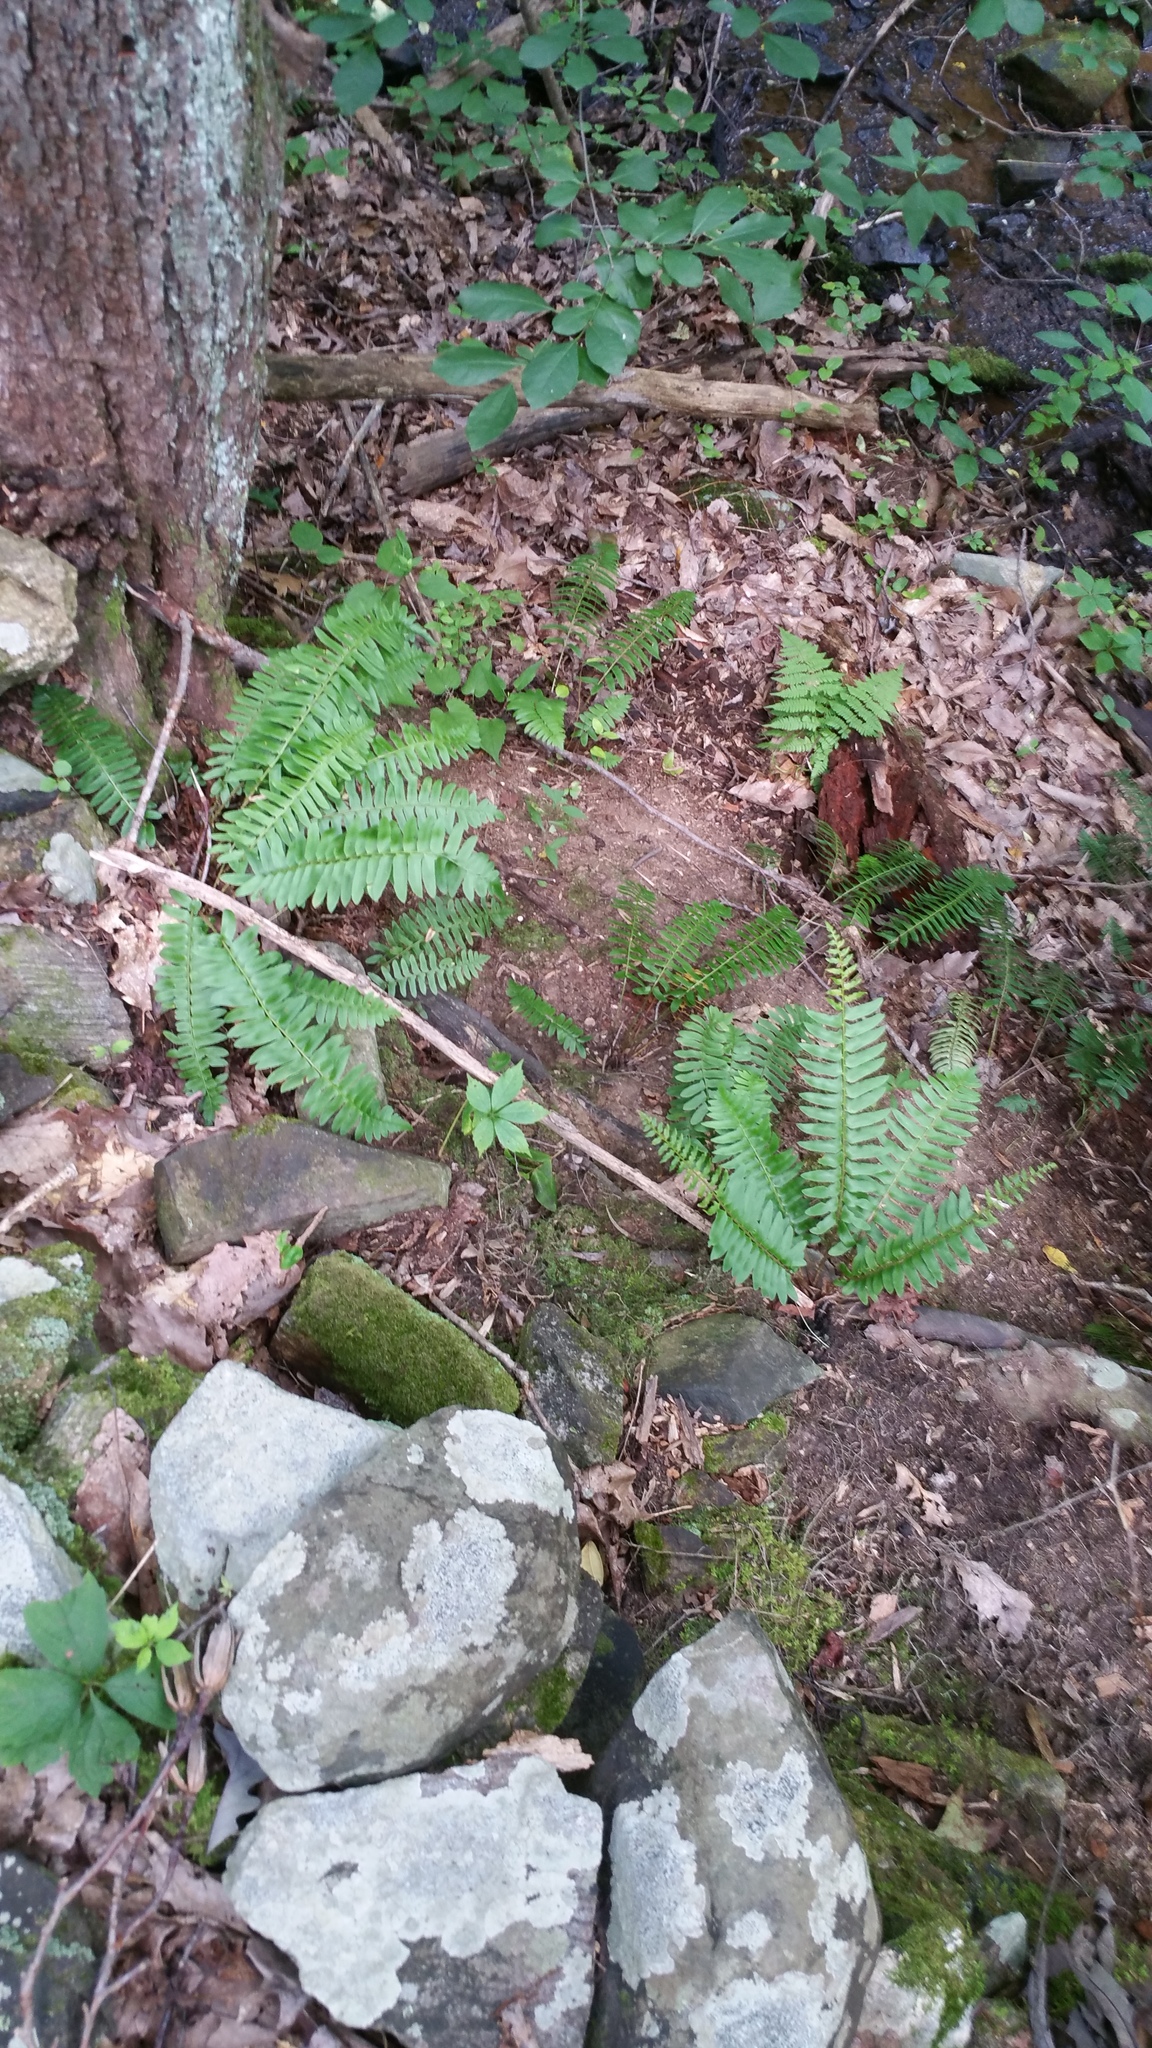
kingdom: Plantae
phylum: Tracheophyta
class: Polypodiopsida
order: Polypodiales
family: Dryopteridaceae
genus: Polystichum
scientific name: Polystichum acrostichoides
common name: Christmas fern
